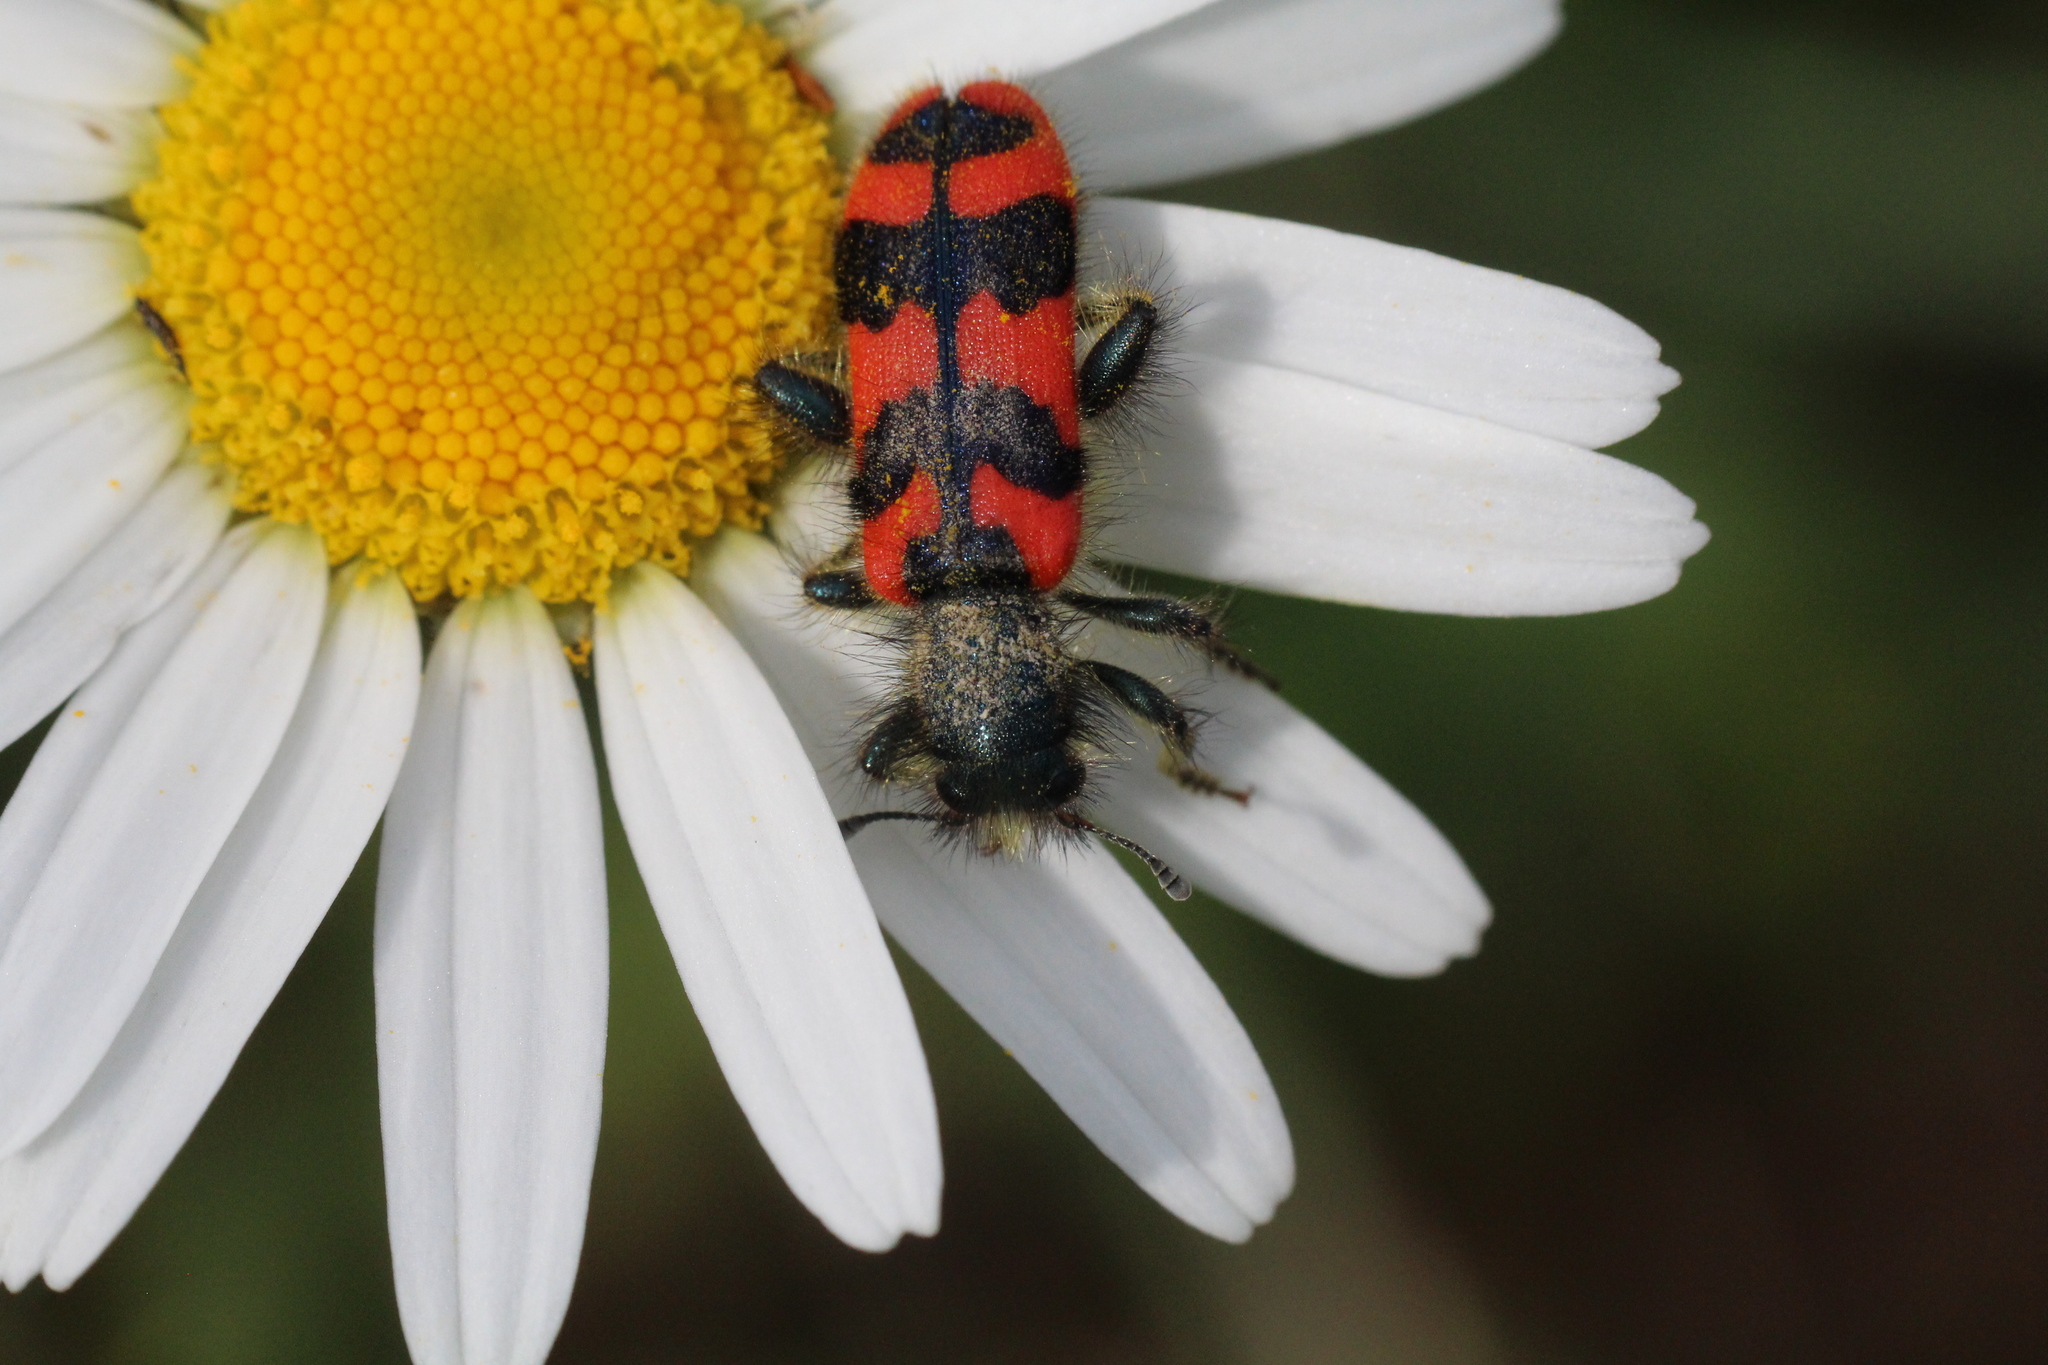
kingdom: Animalia
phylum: Arthropoda
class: Insecta
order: Coleoptera
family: Cleridae
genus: Trichodes
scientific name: Trichodes alvearius
